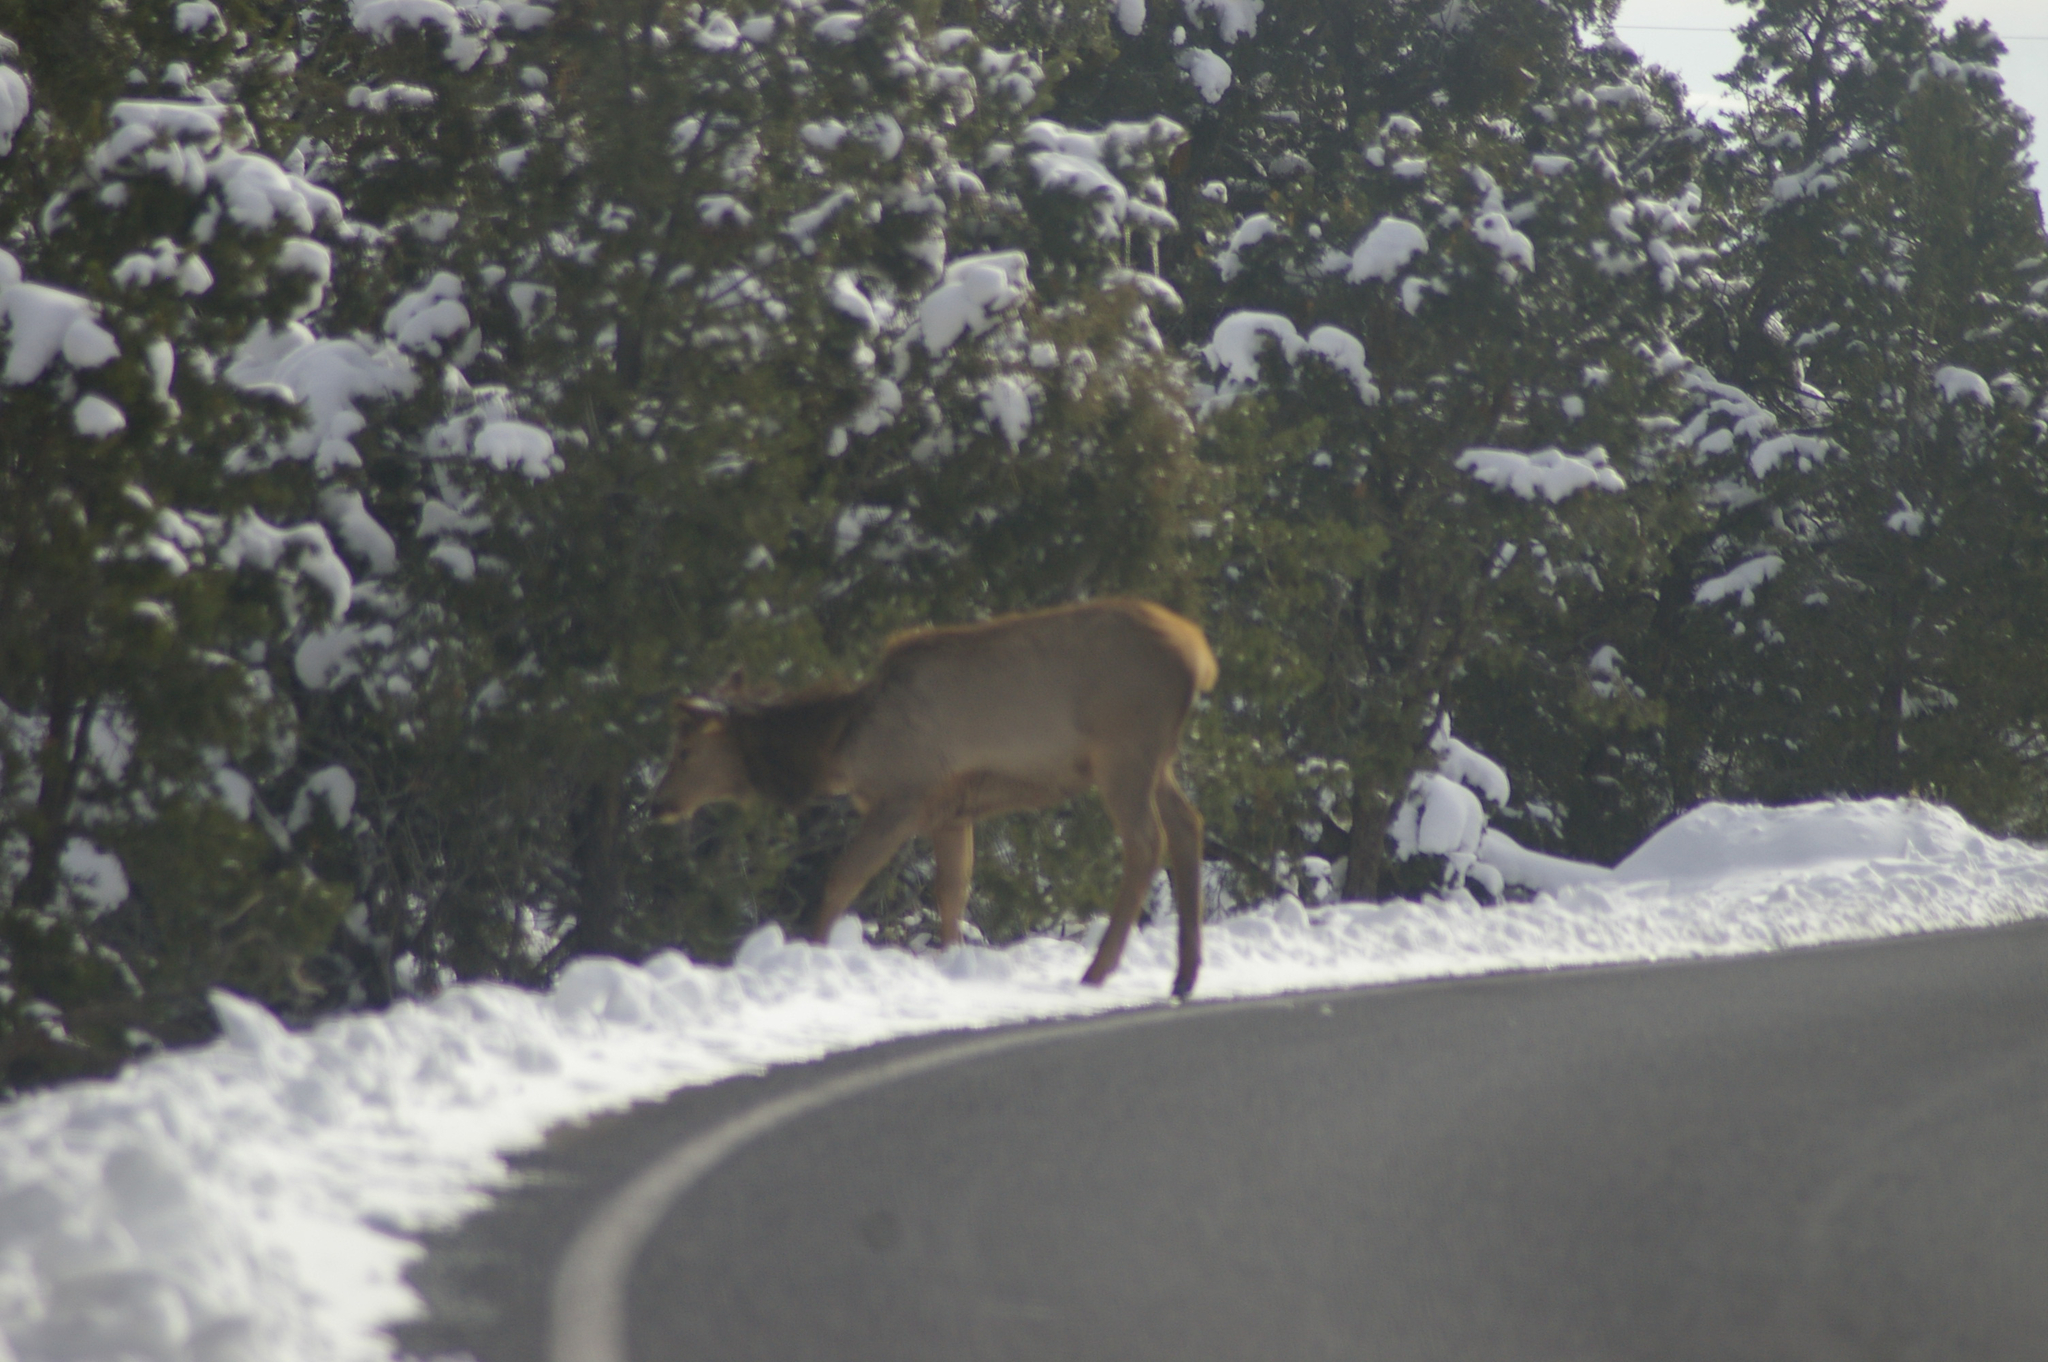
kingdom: Animalia
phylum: Chordata
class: Mammalia
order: Artiodactyla
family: Cervidae
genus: Cervus
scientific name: Cervus elaphus
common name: Red deer
